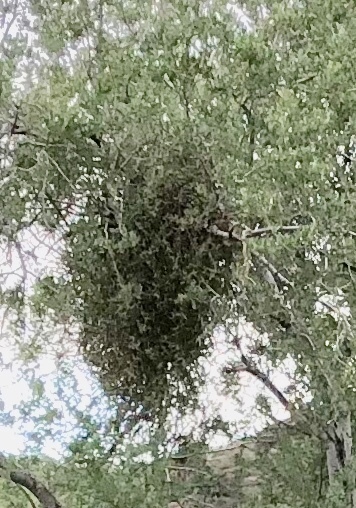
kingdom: Plantae
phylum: Tracheophyta
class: Magnoliopsida
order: Santalales
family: Viscaceae
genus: Phoradendron
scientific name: Phoradendron californicum
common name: Acacia mistletoe
